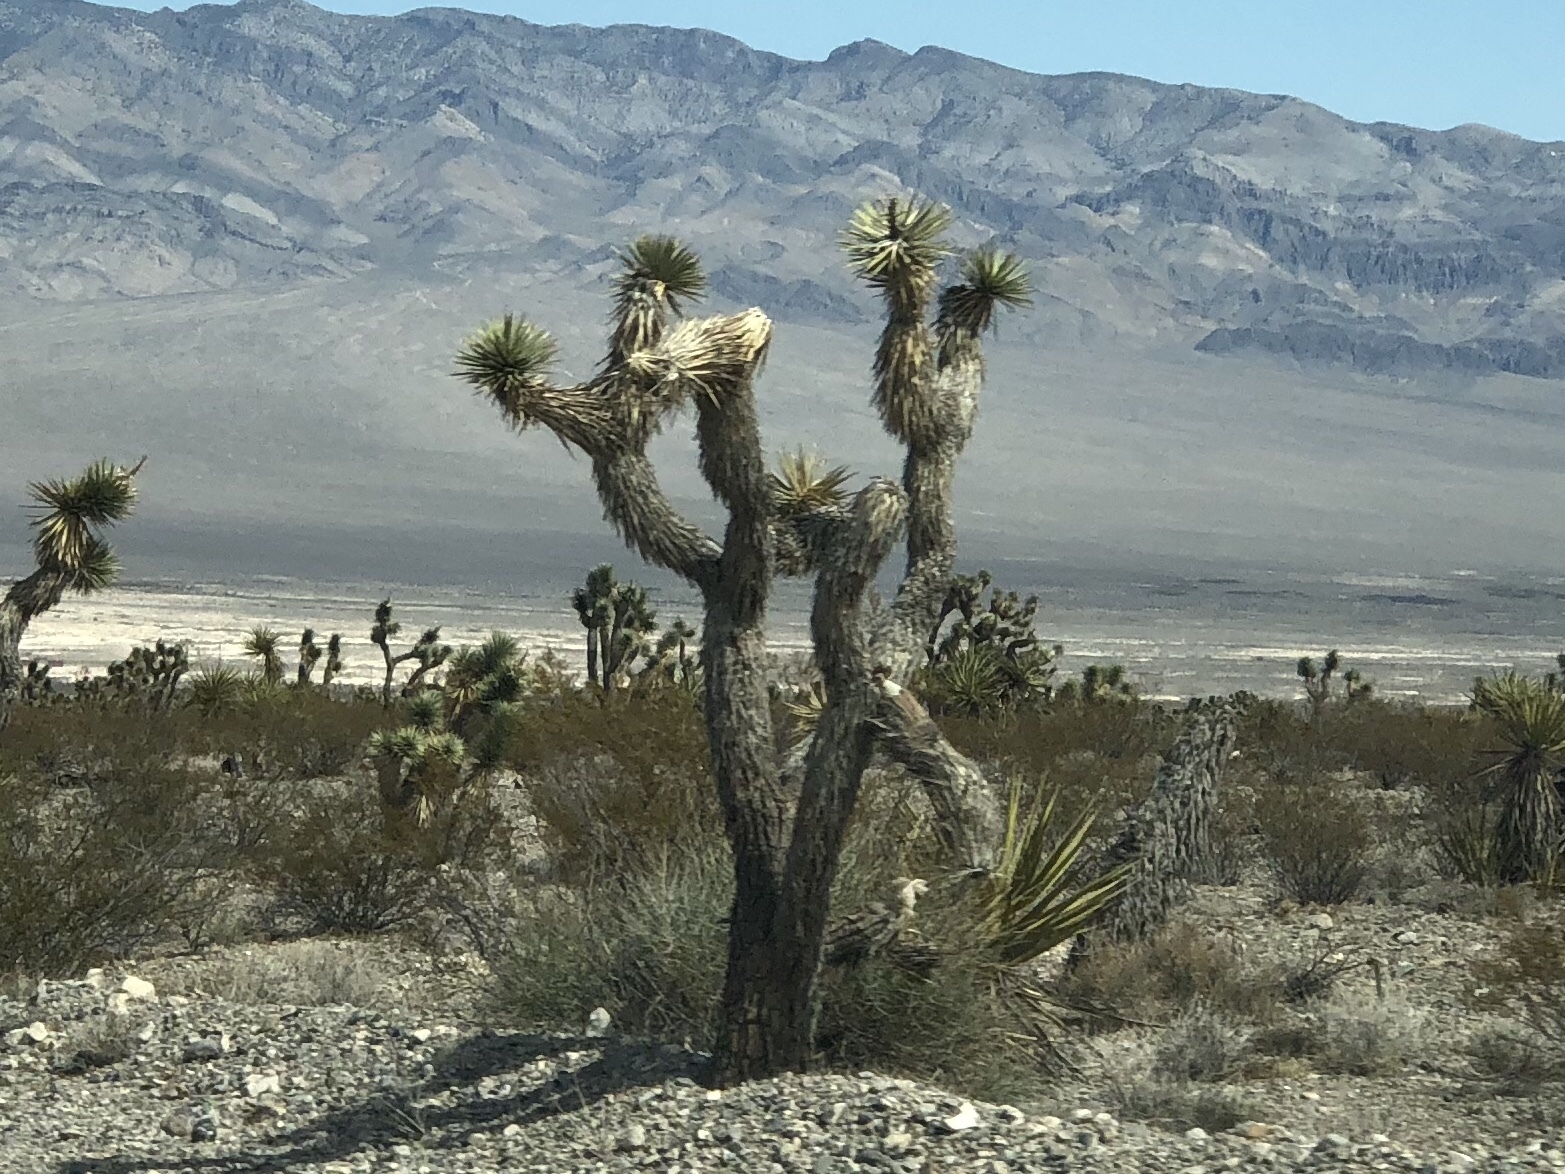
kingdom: Plantae
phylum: Tracheophyta
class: Liliopsida
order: Asparagales
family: Asparagaceae
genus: Yucca
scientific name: Yucca brevifolia
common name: Joshua tree
